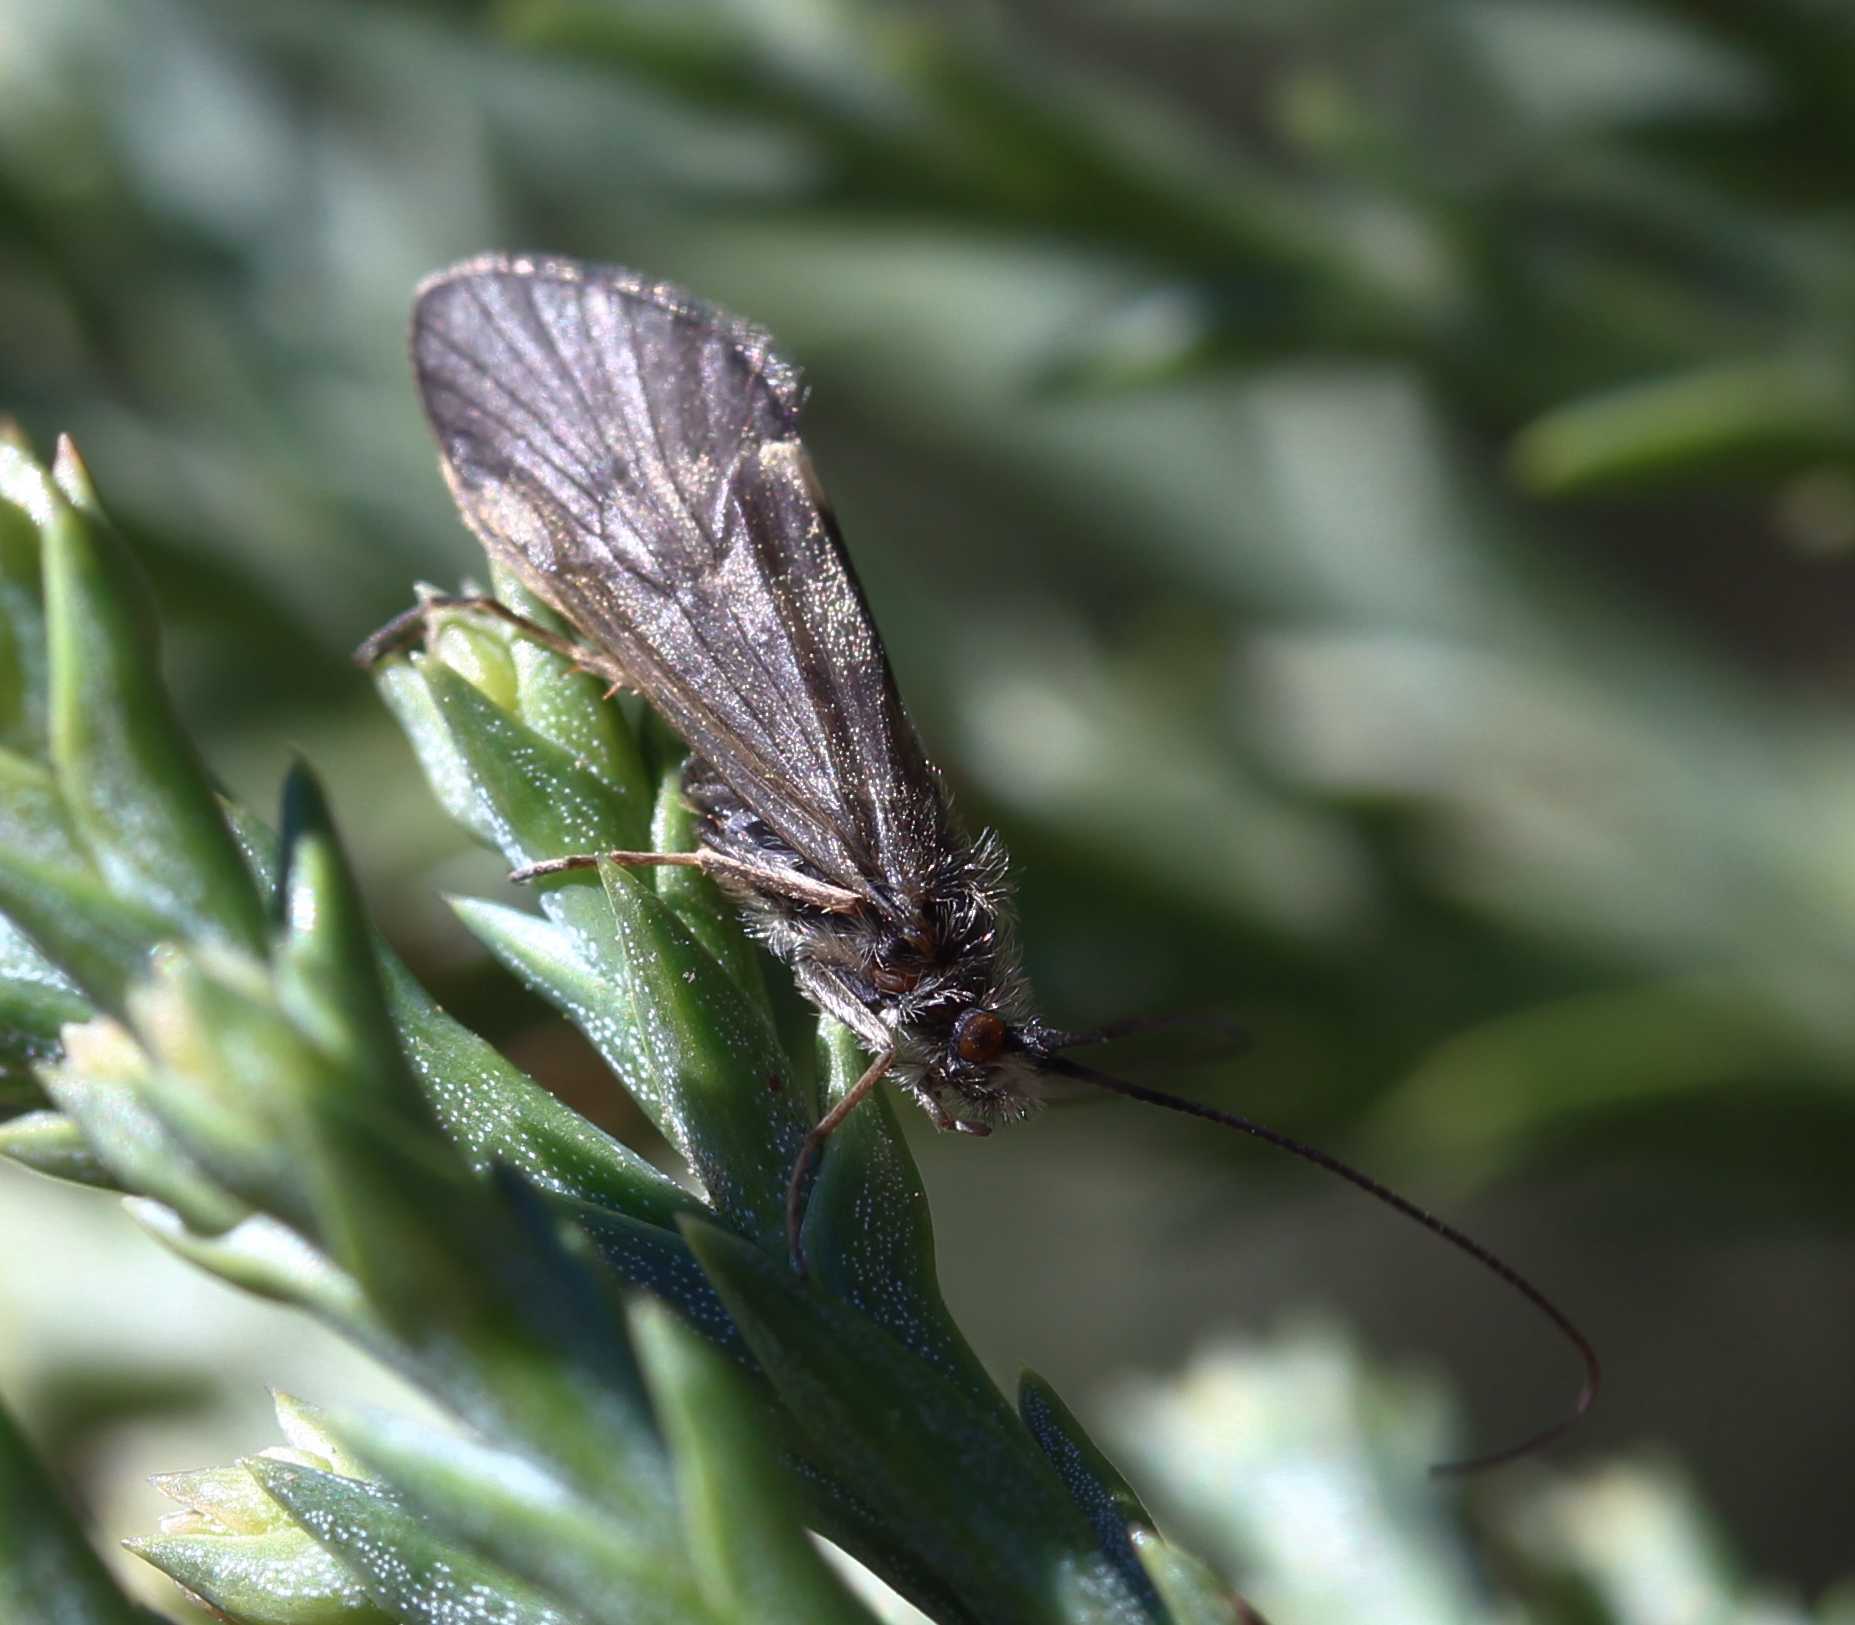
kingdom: Animalia
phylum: Arthropoda
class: Insecta
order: Trichoptera
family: Brachycentridae
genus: Brachycentrus
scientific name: Brachycentrus subnubilis
